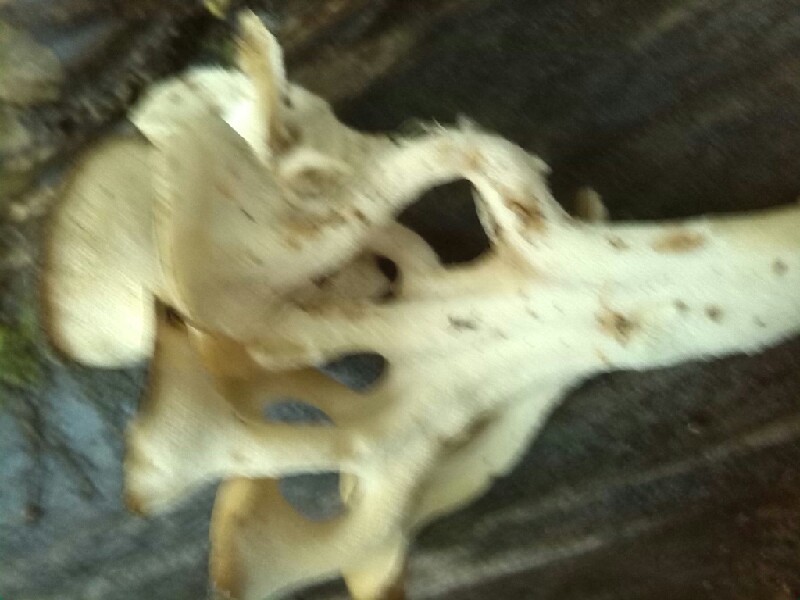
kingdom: Fungi
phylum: Basidiomycota
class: Agaricomycetes
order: Polyporales
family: Polyporaceae
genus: Polyporus
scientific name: Polyporus umbellatus
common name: Umbrella polypore
